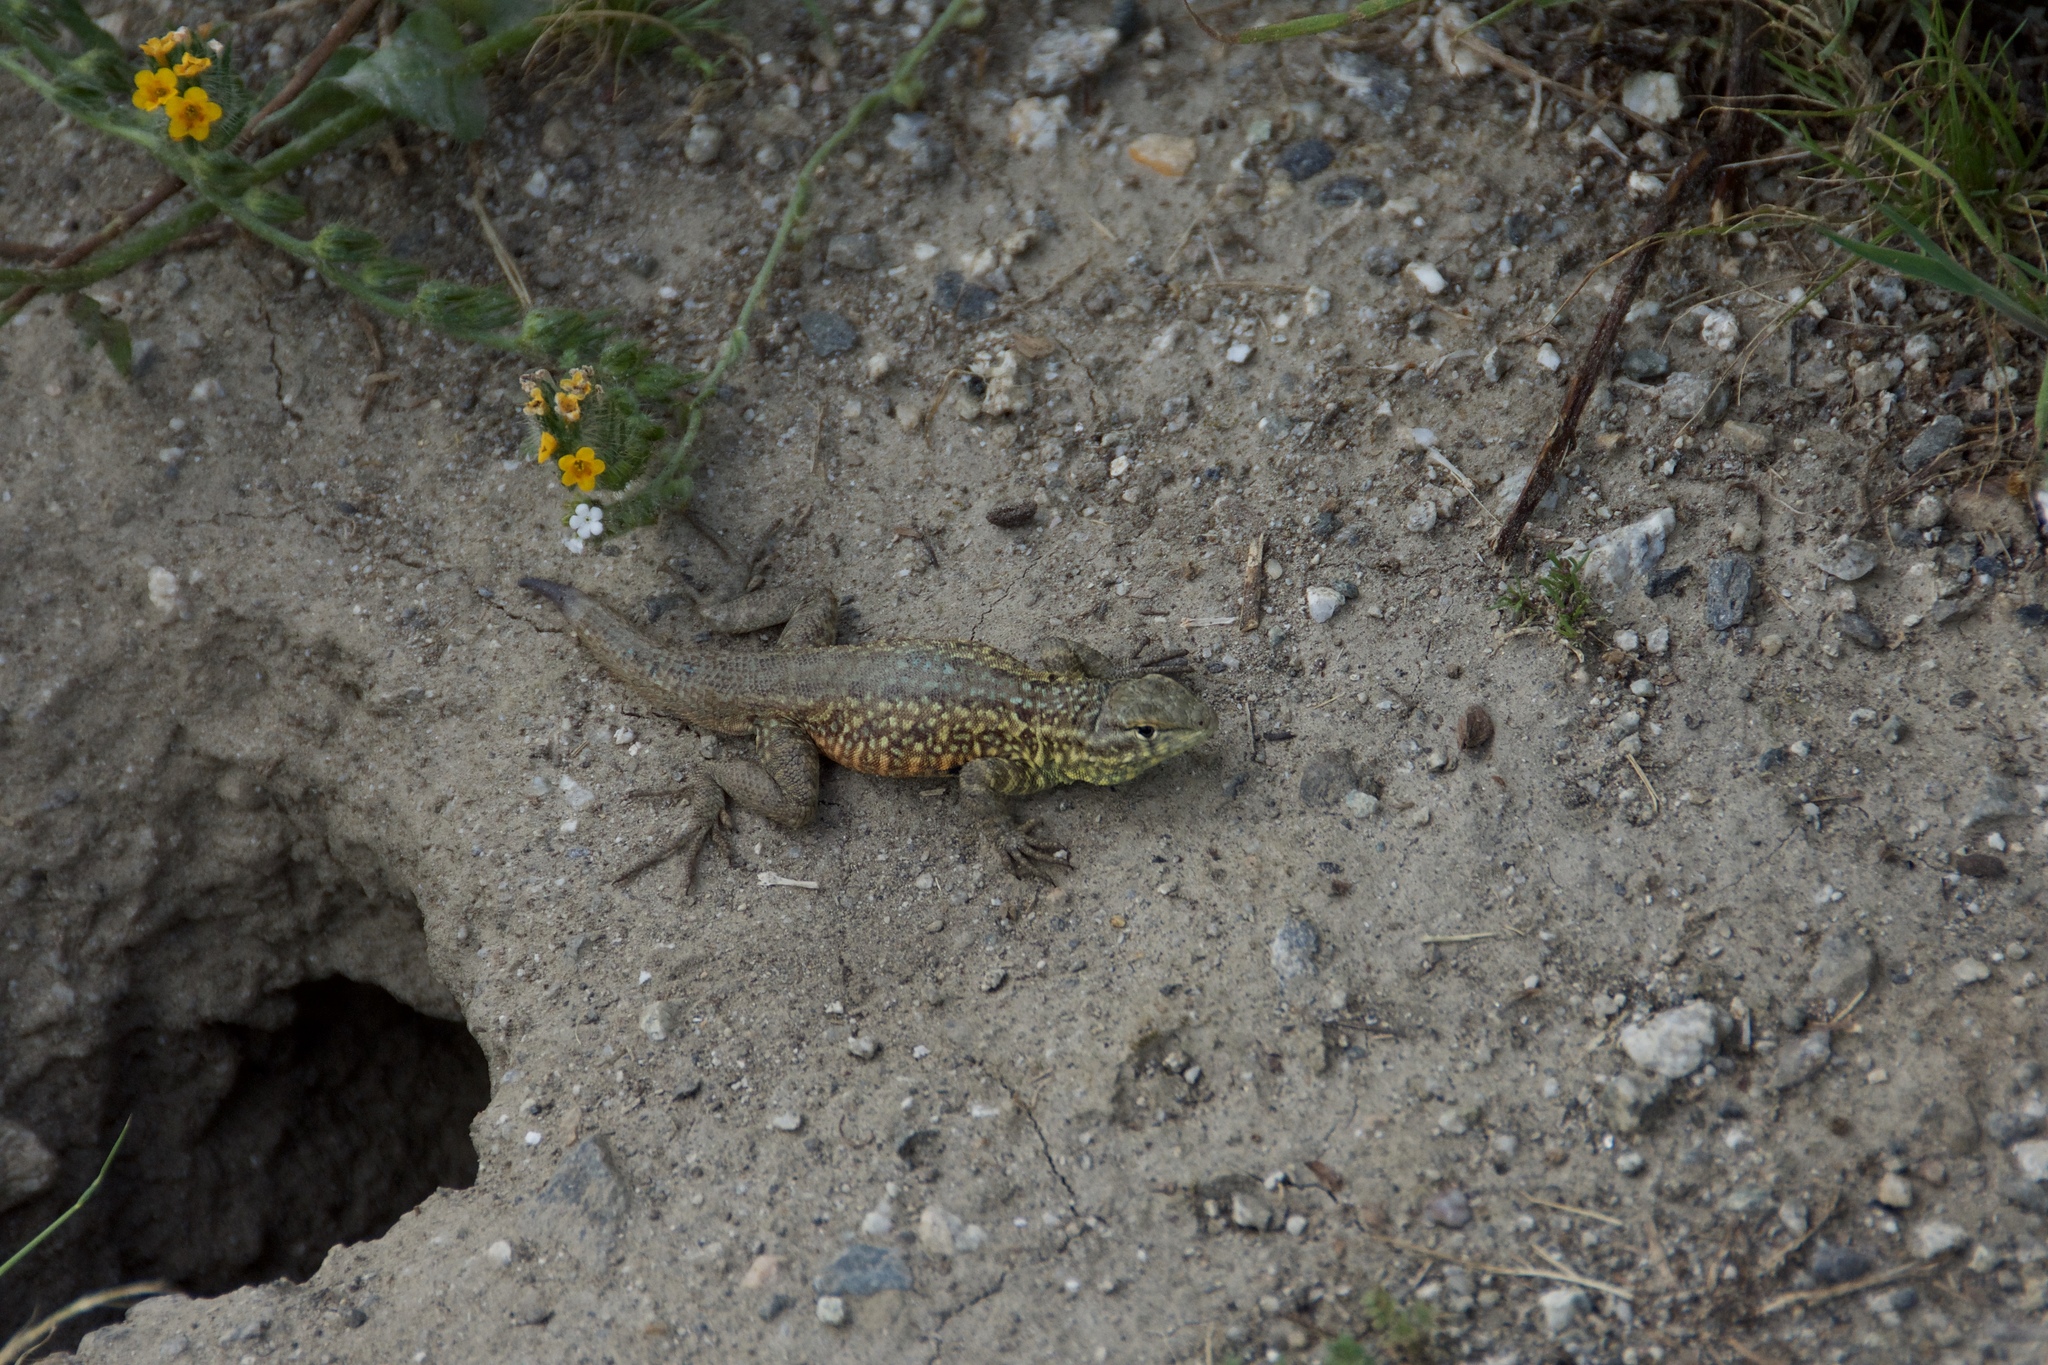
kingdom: Animalia
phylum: Chordata
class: Squamata
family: Phrynosomatidae
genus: Uta
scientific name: Uta stansburiana
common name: Side-blotched lizard
